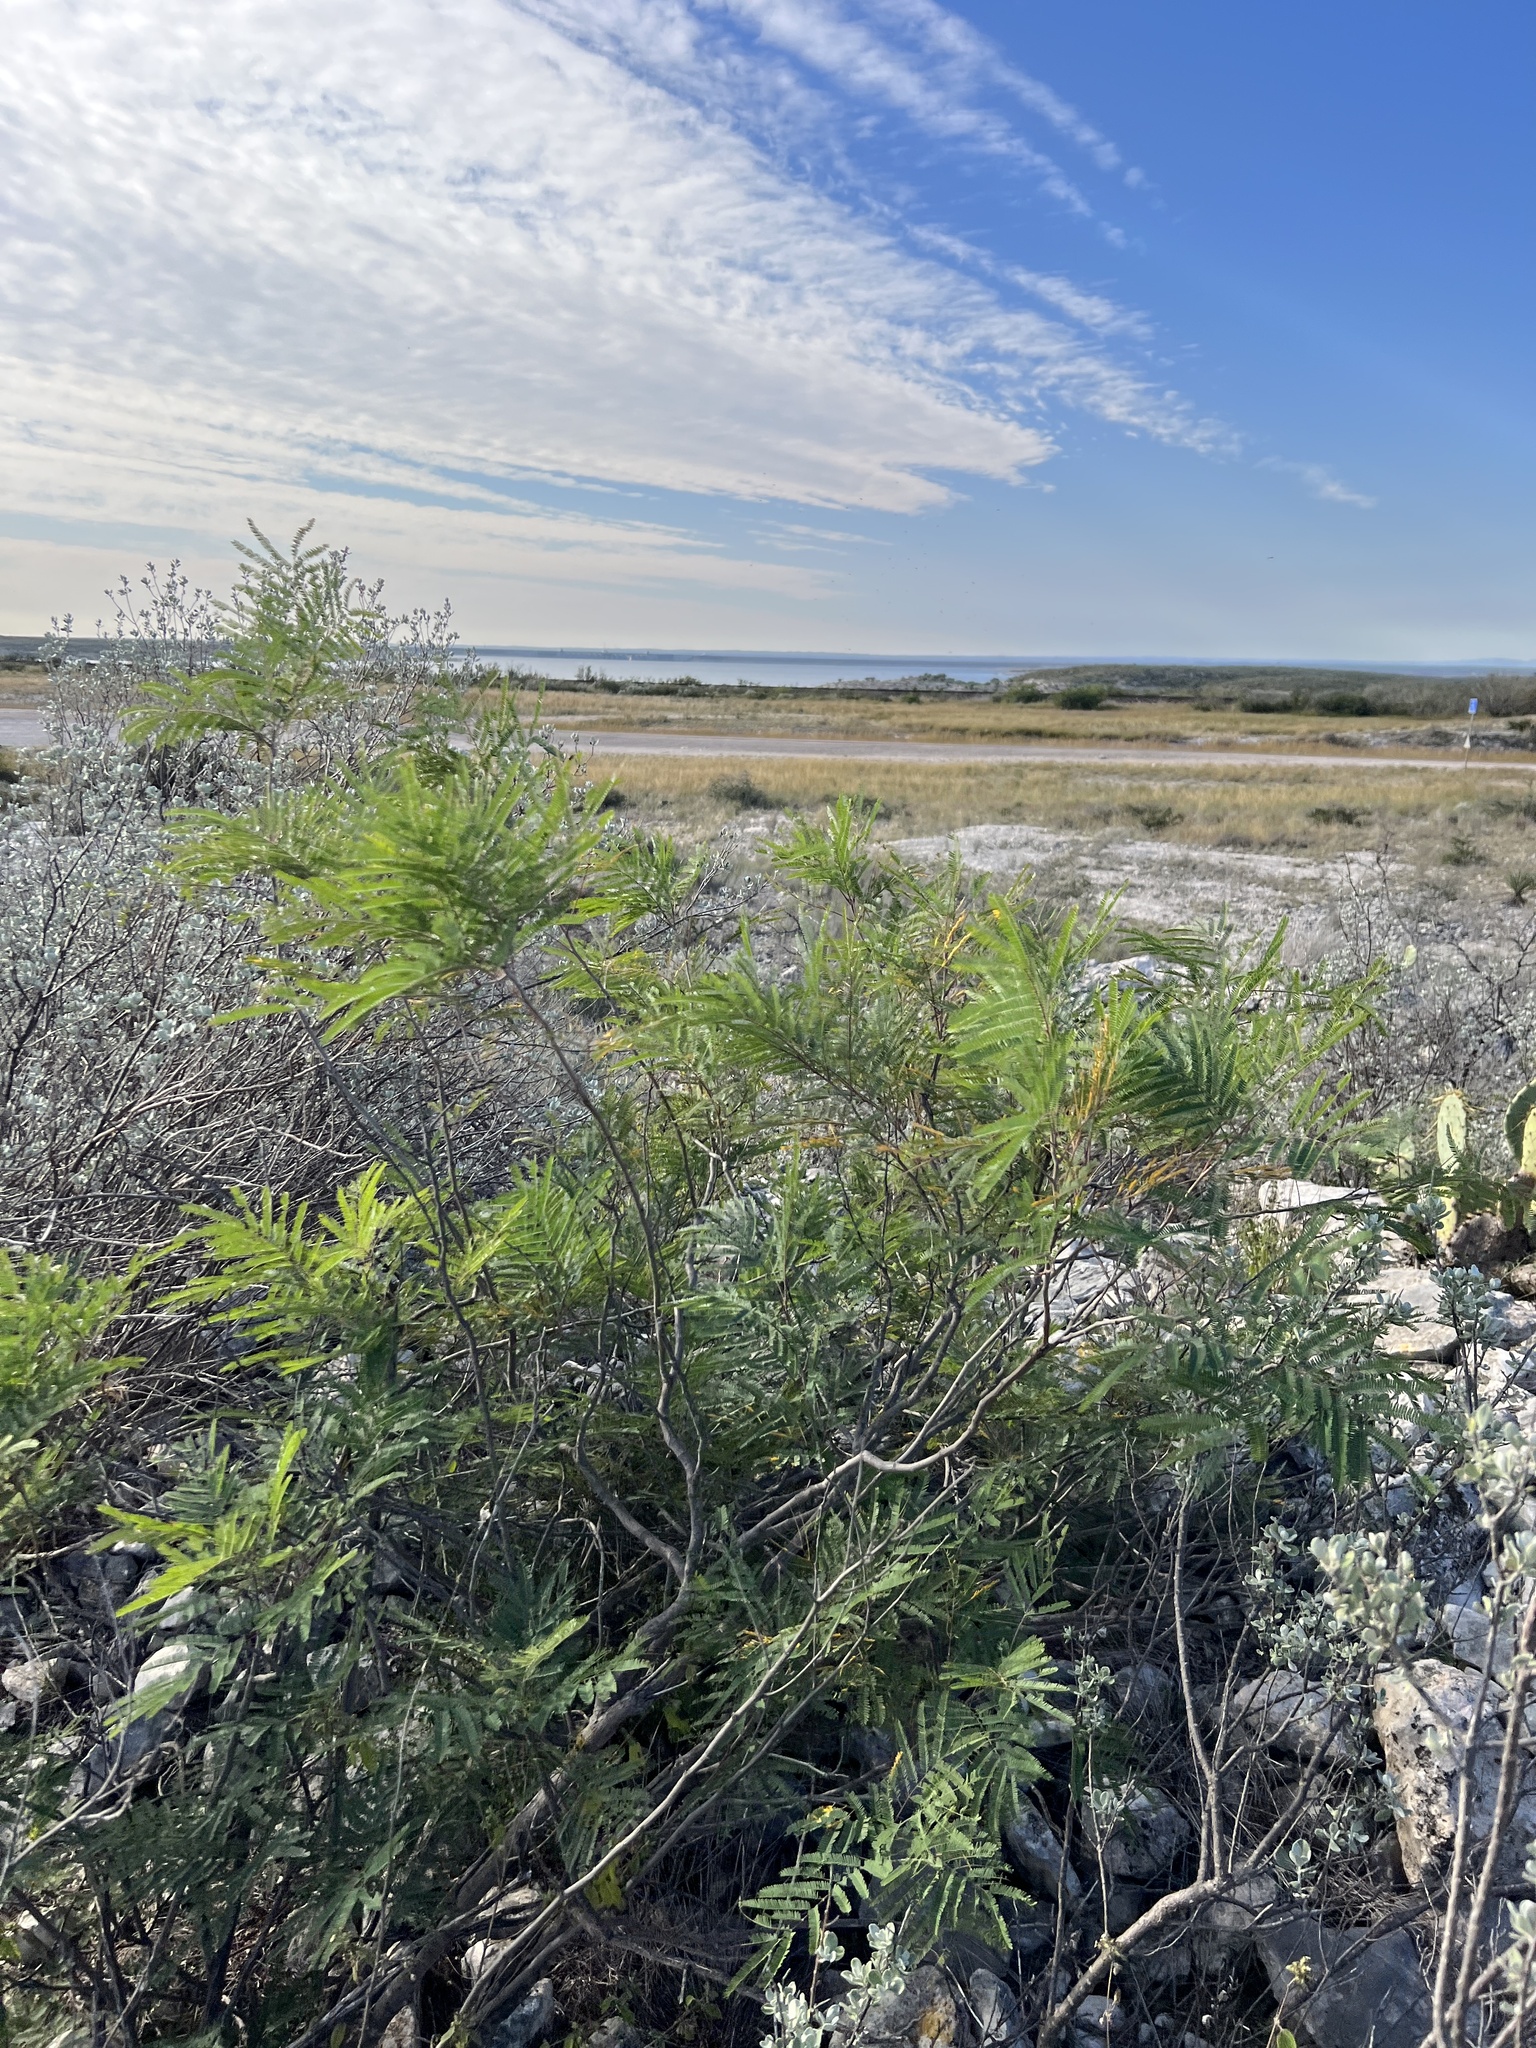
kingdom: Plantae
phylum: Tracheophyta
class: Magnoliopsida
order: Fabales
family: Fabaceae
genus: Senegalia
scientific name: Senegalia berlandieri
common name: Berlandier acacia
